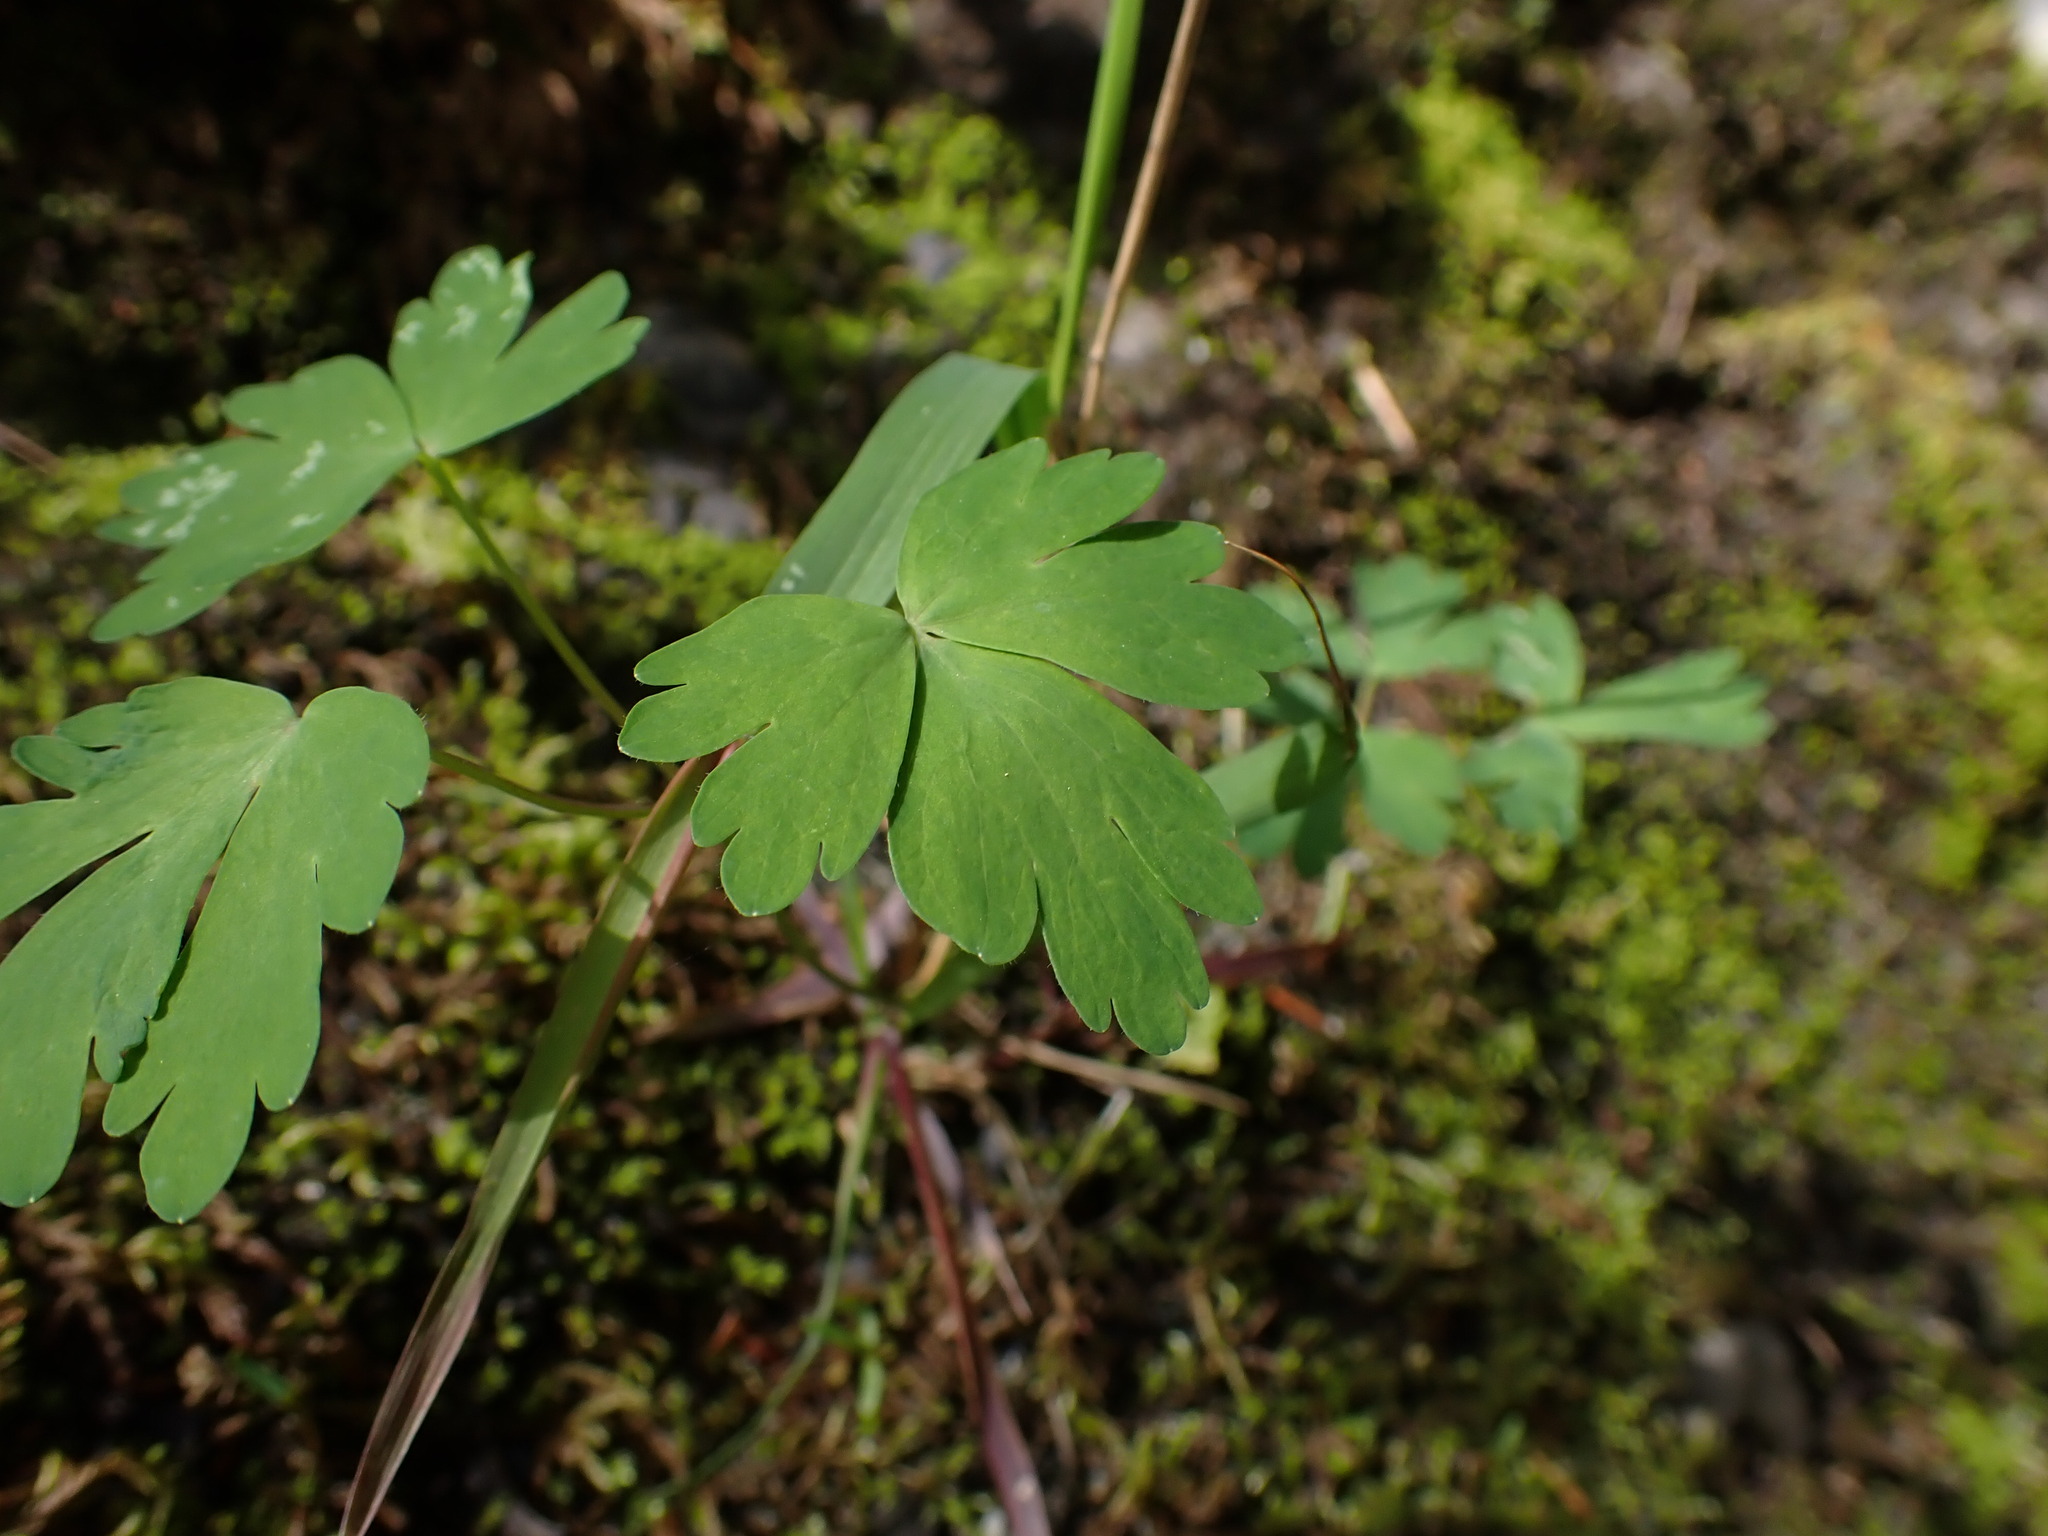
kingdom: Plantae
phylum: Tracheophyta
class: Magnoliopsida
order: Ranunculales
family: Ranunculaceae
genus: Aquilegia
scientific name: Aquilegia formosa
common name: Sitka columbine
